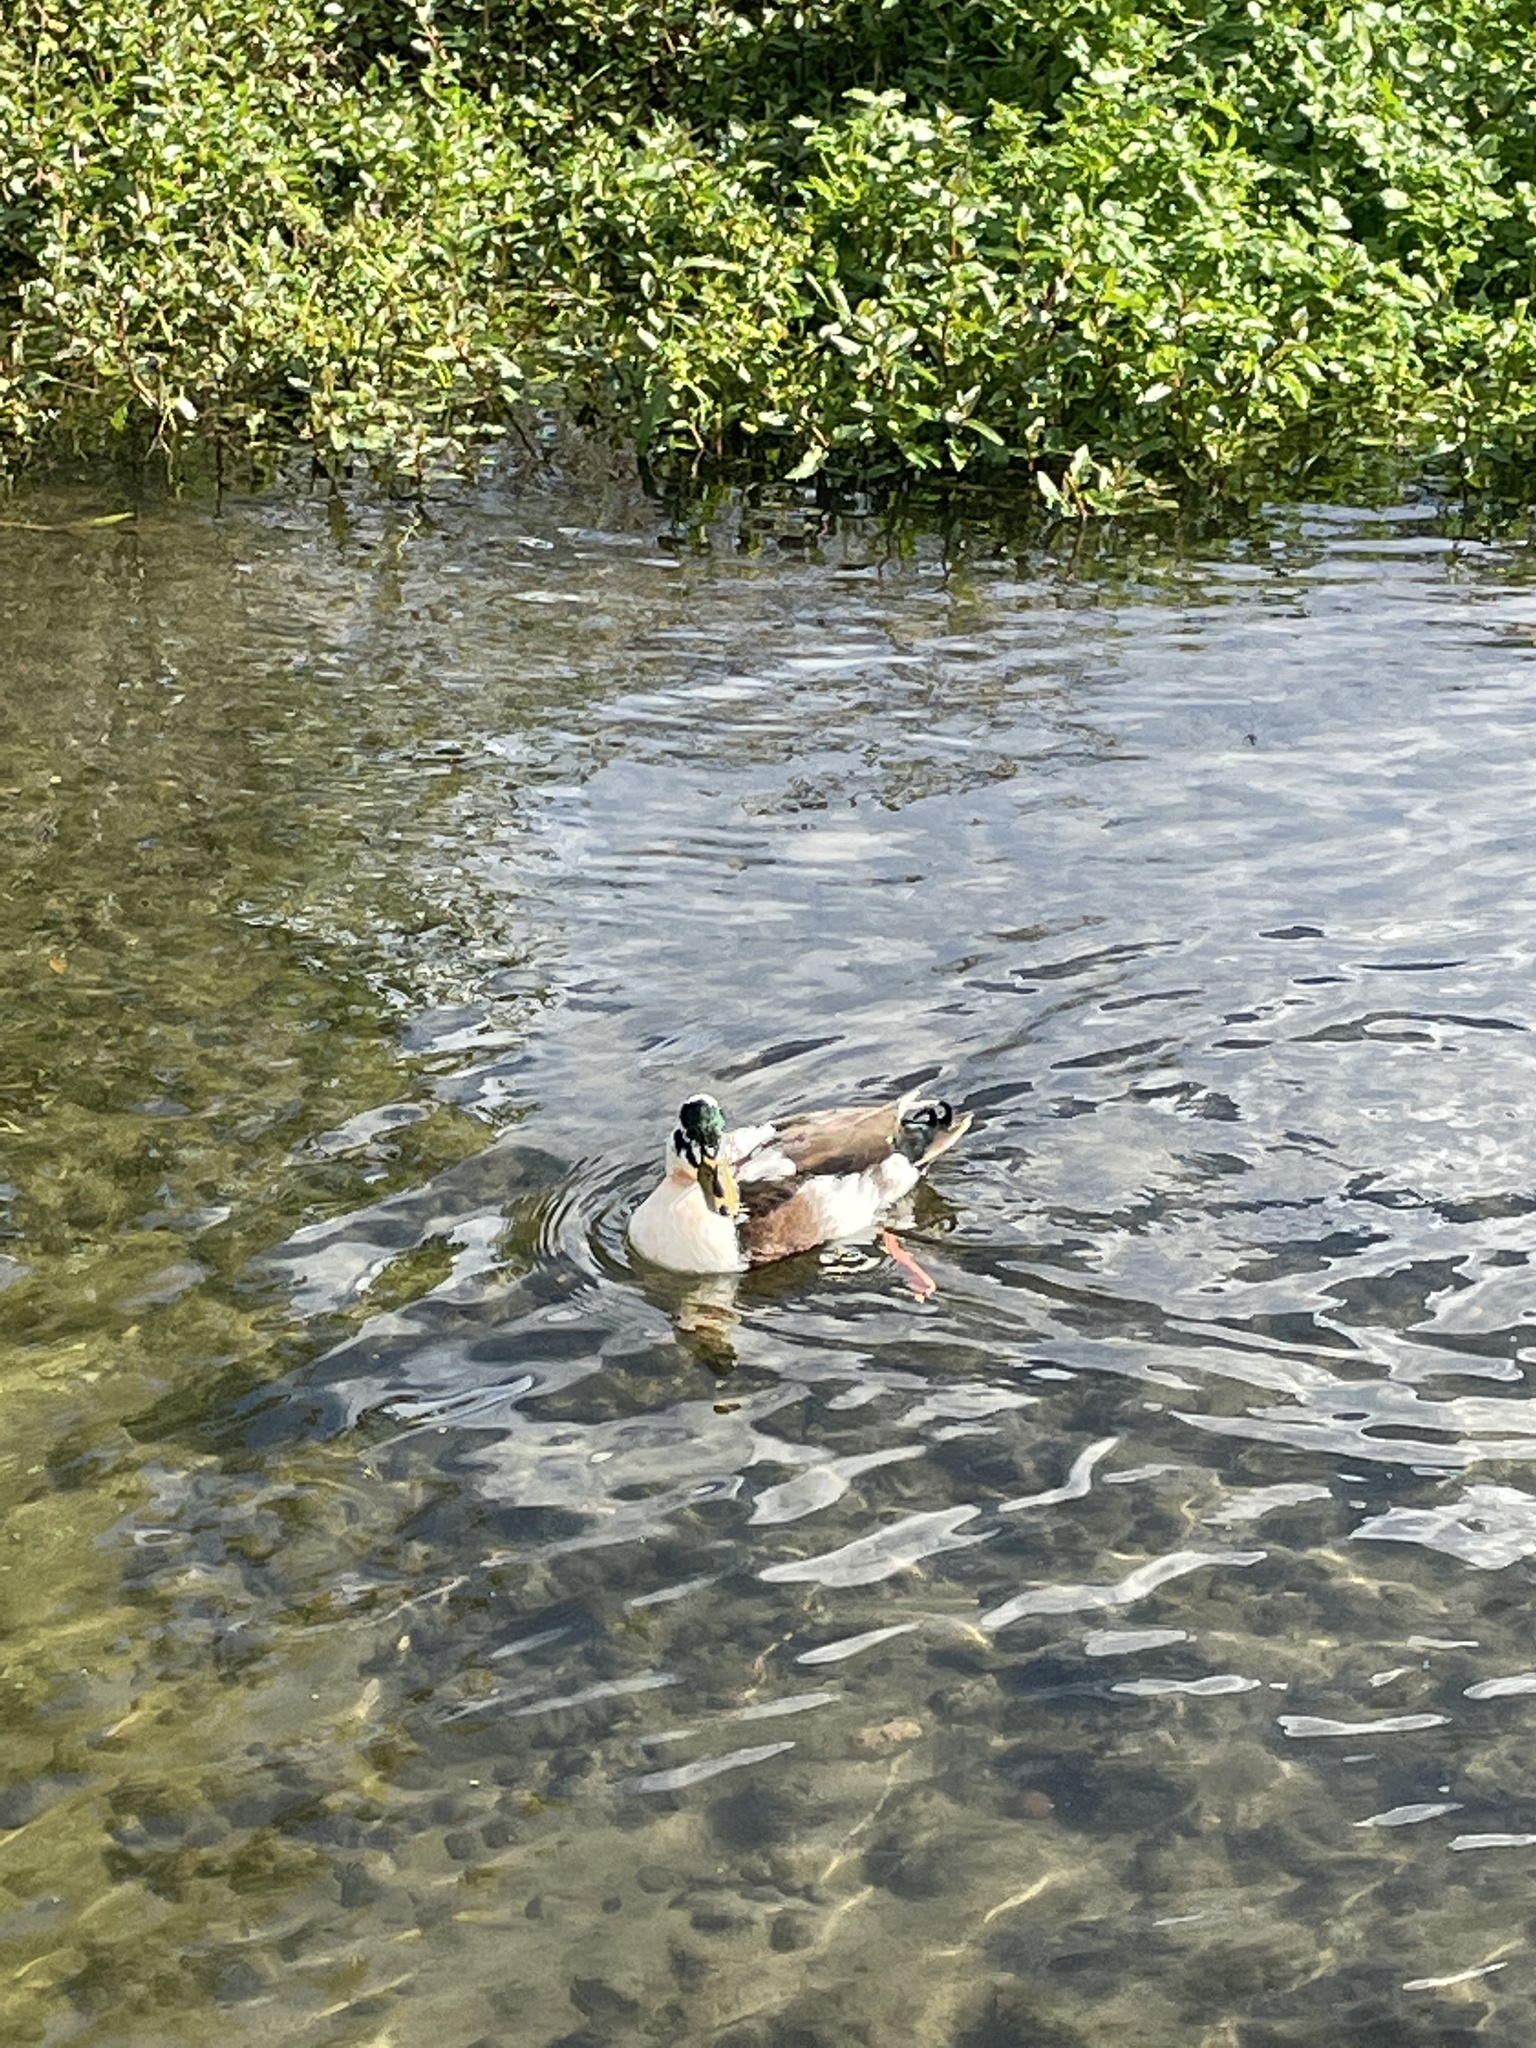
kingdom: Animalia
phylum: Chordata
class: Aves
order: Anseriformes
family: Anatidae
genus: Anas
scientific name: Anas platyrhynchos
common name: Mallard
